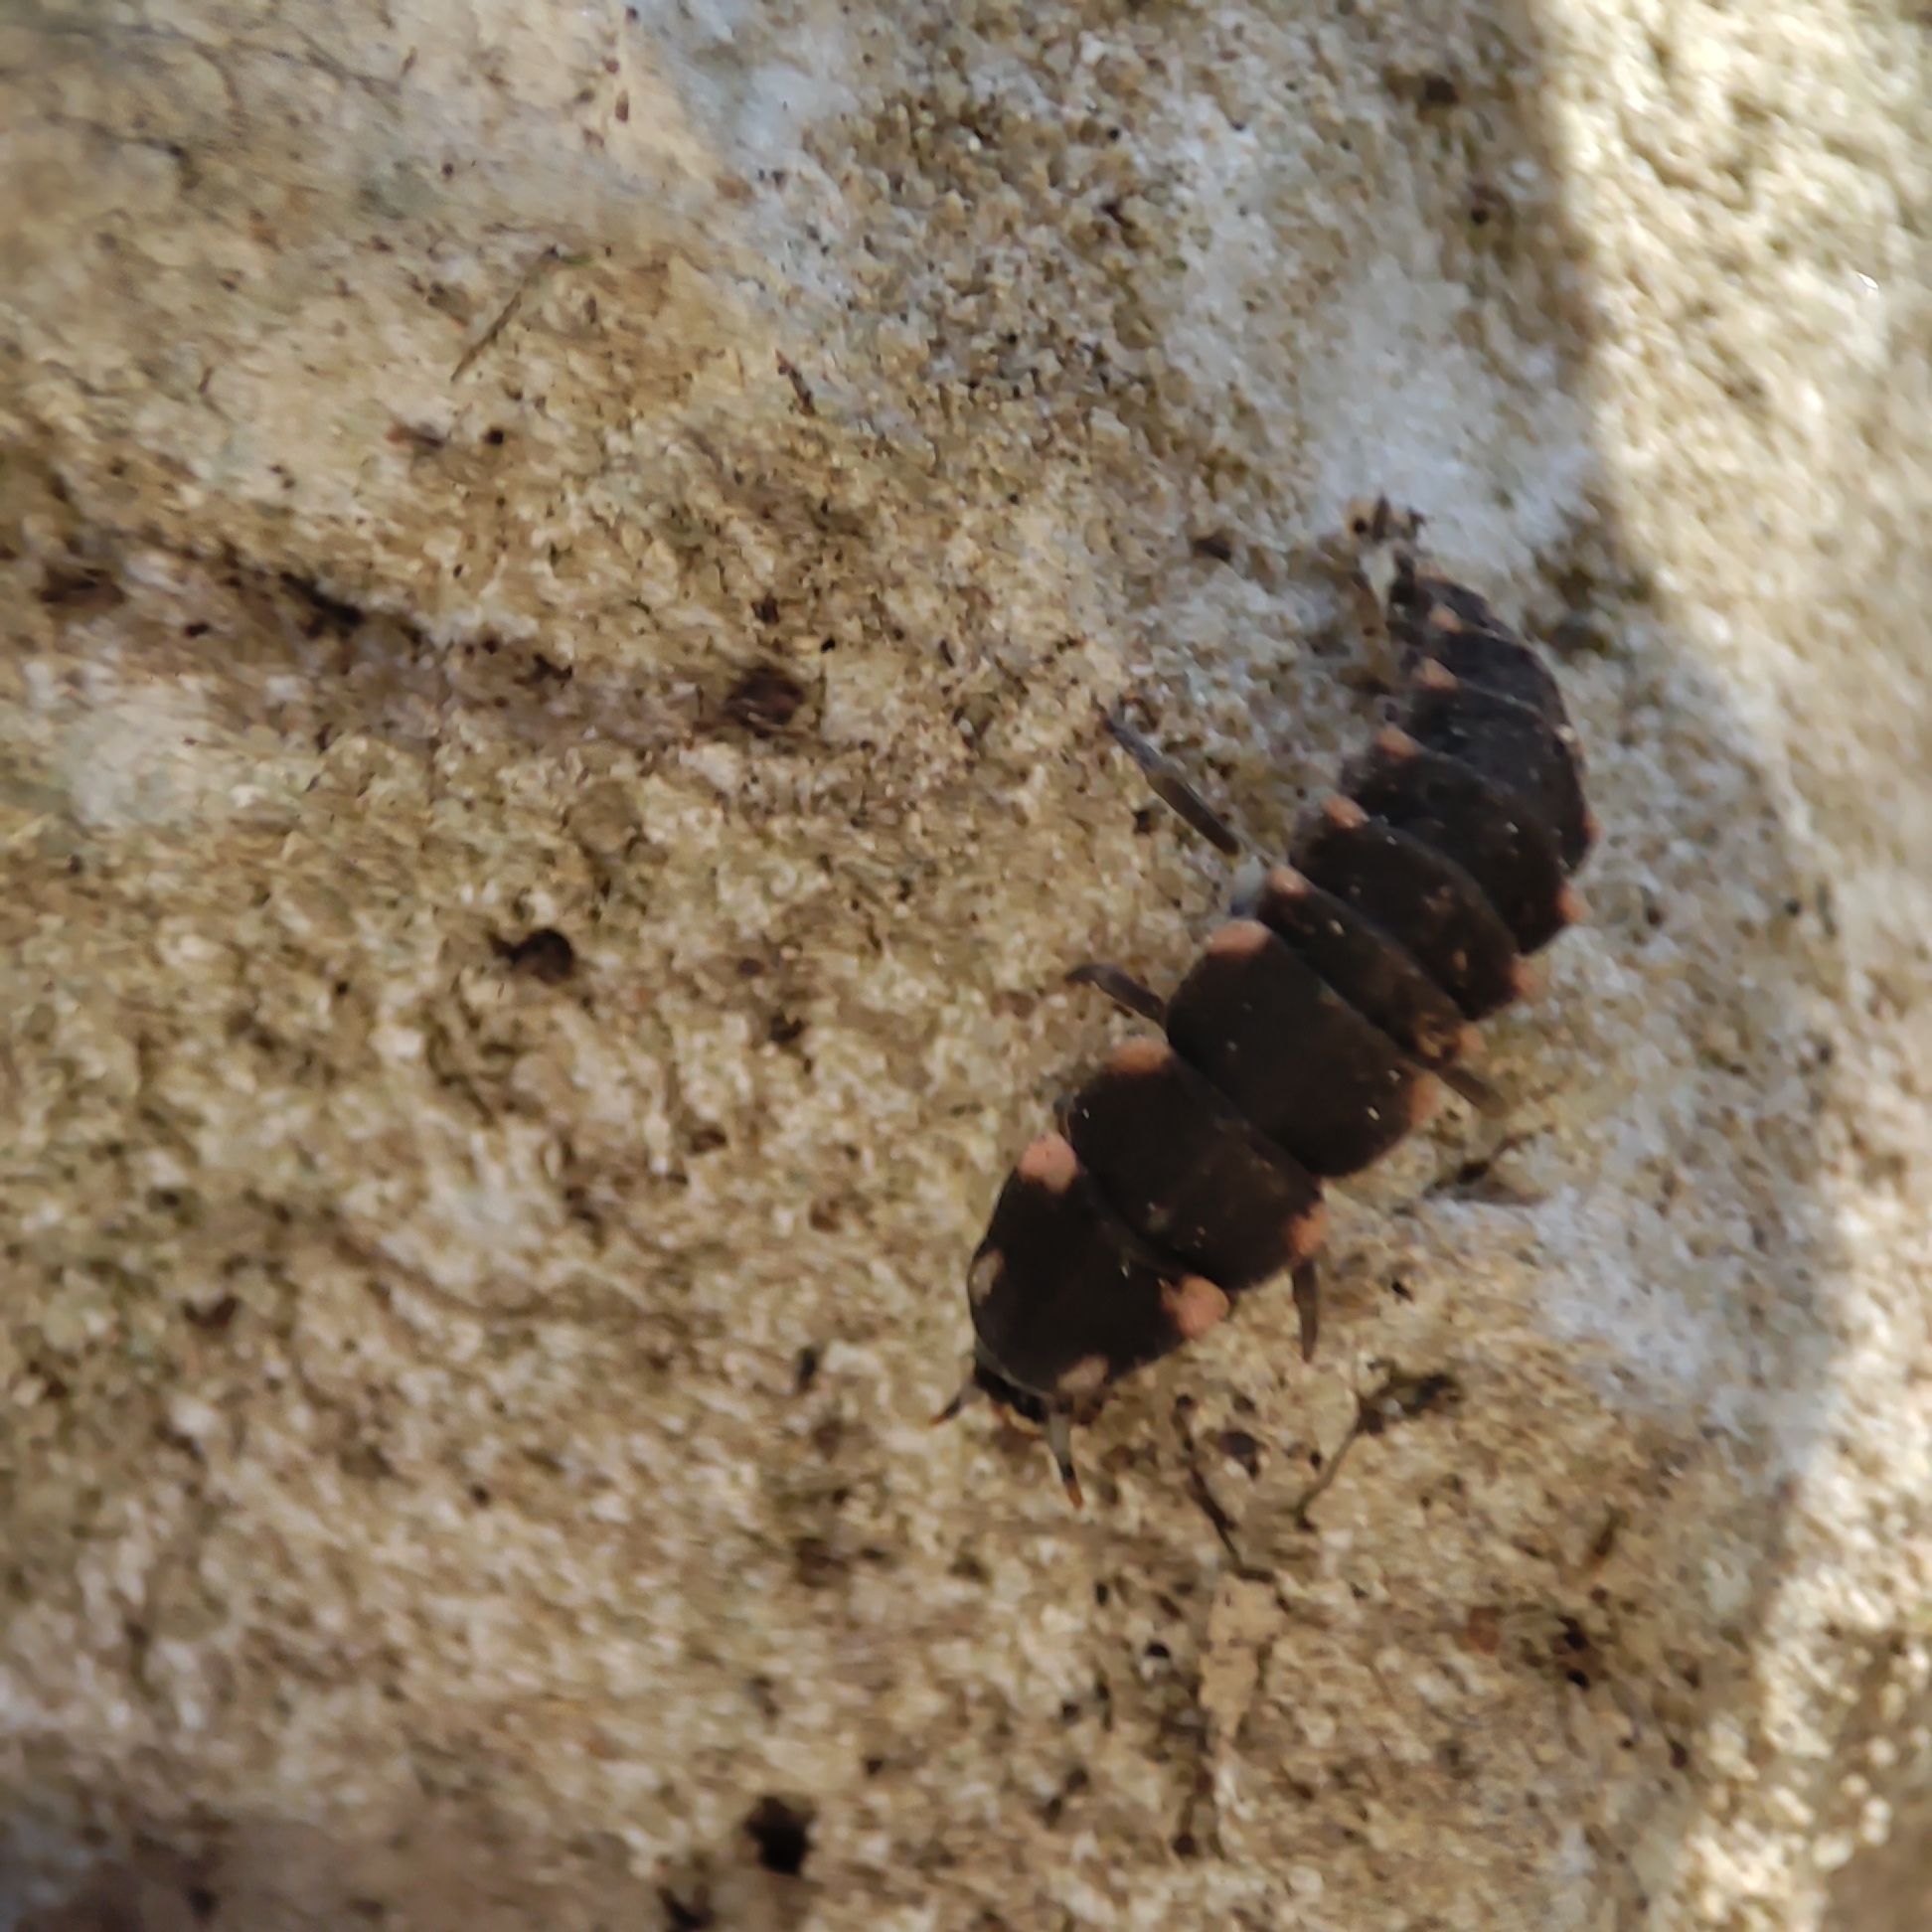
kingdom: Animalia
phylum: Arthropoda
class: Insecta
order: Coleoptera
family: Lampyridae
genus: Lampyris
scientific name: Lampyris noctiluca
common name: Glow-worm
